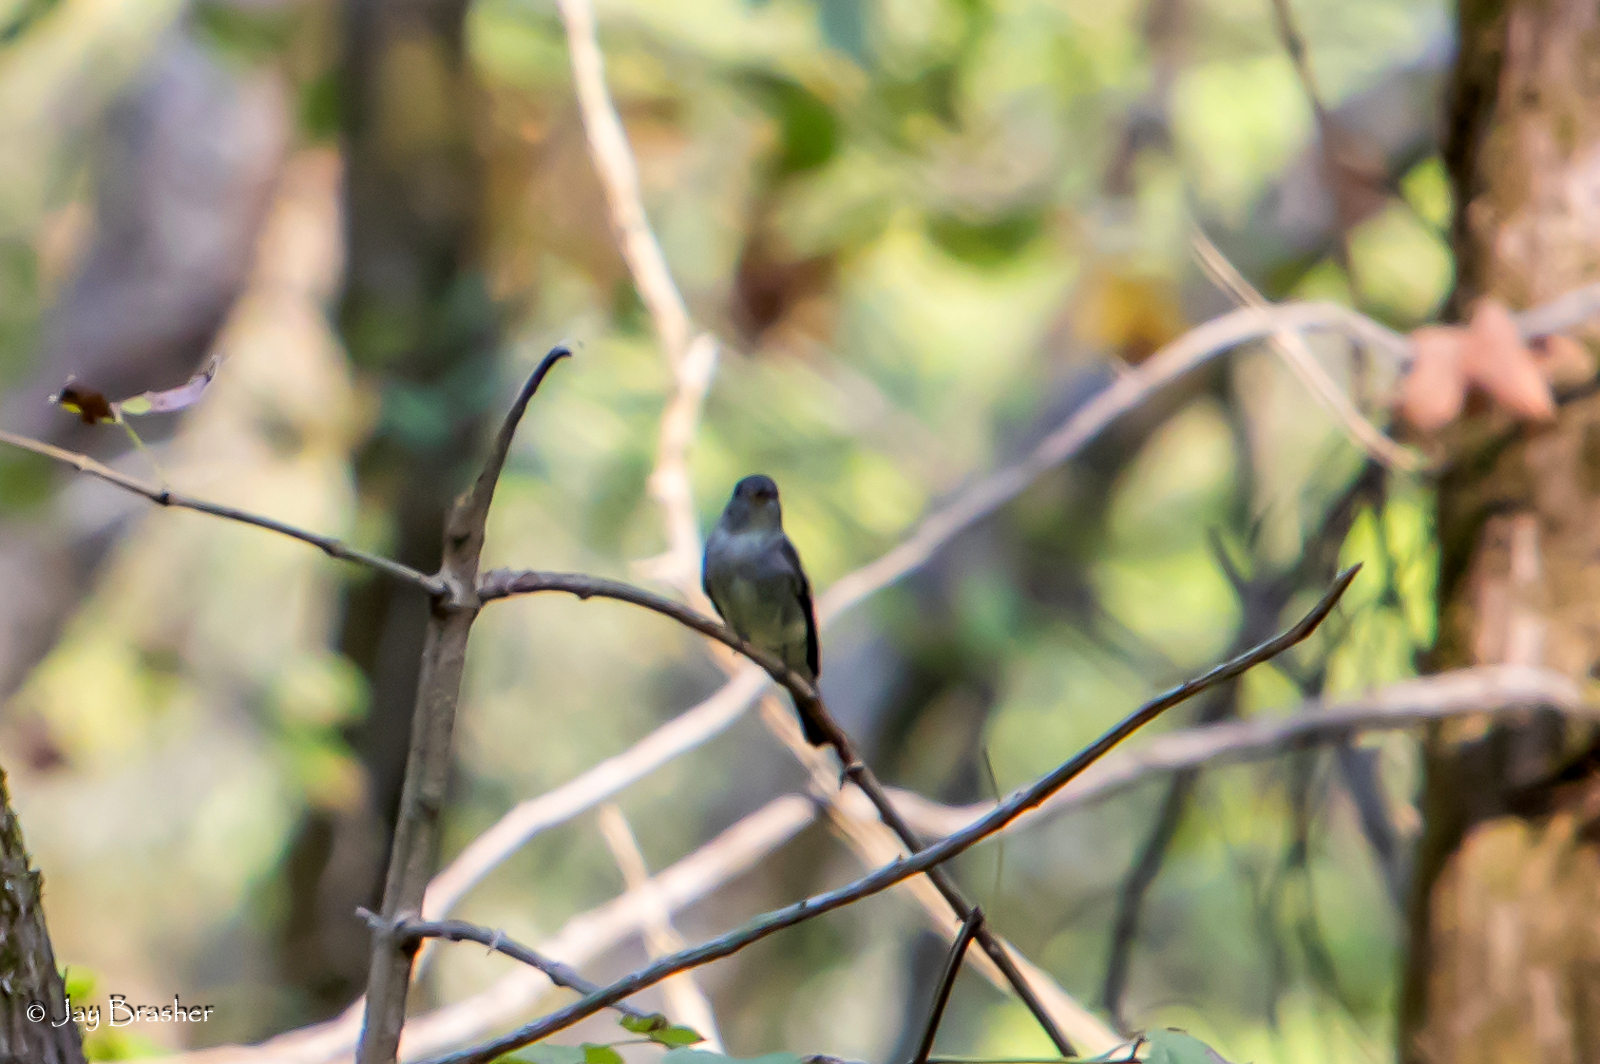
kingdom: Animalia
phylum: Chordata
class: Aves
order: Passeriformes
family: Tyrannidae
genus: Contopus
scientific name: Contopus virens
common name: Eastern wood-pewee
